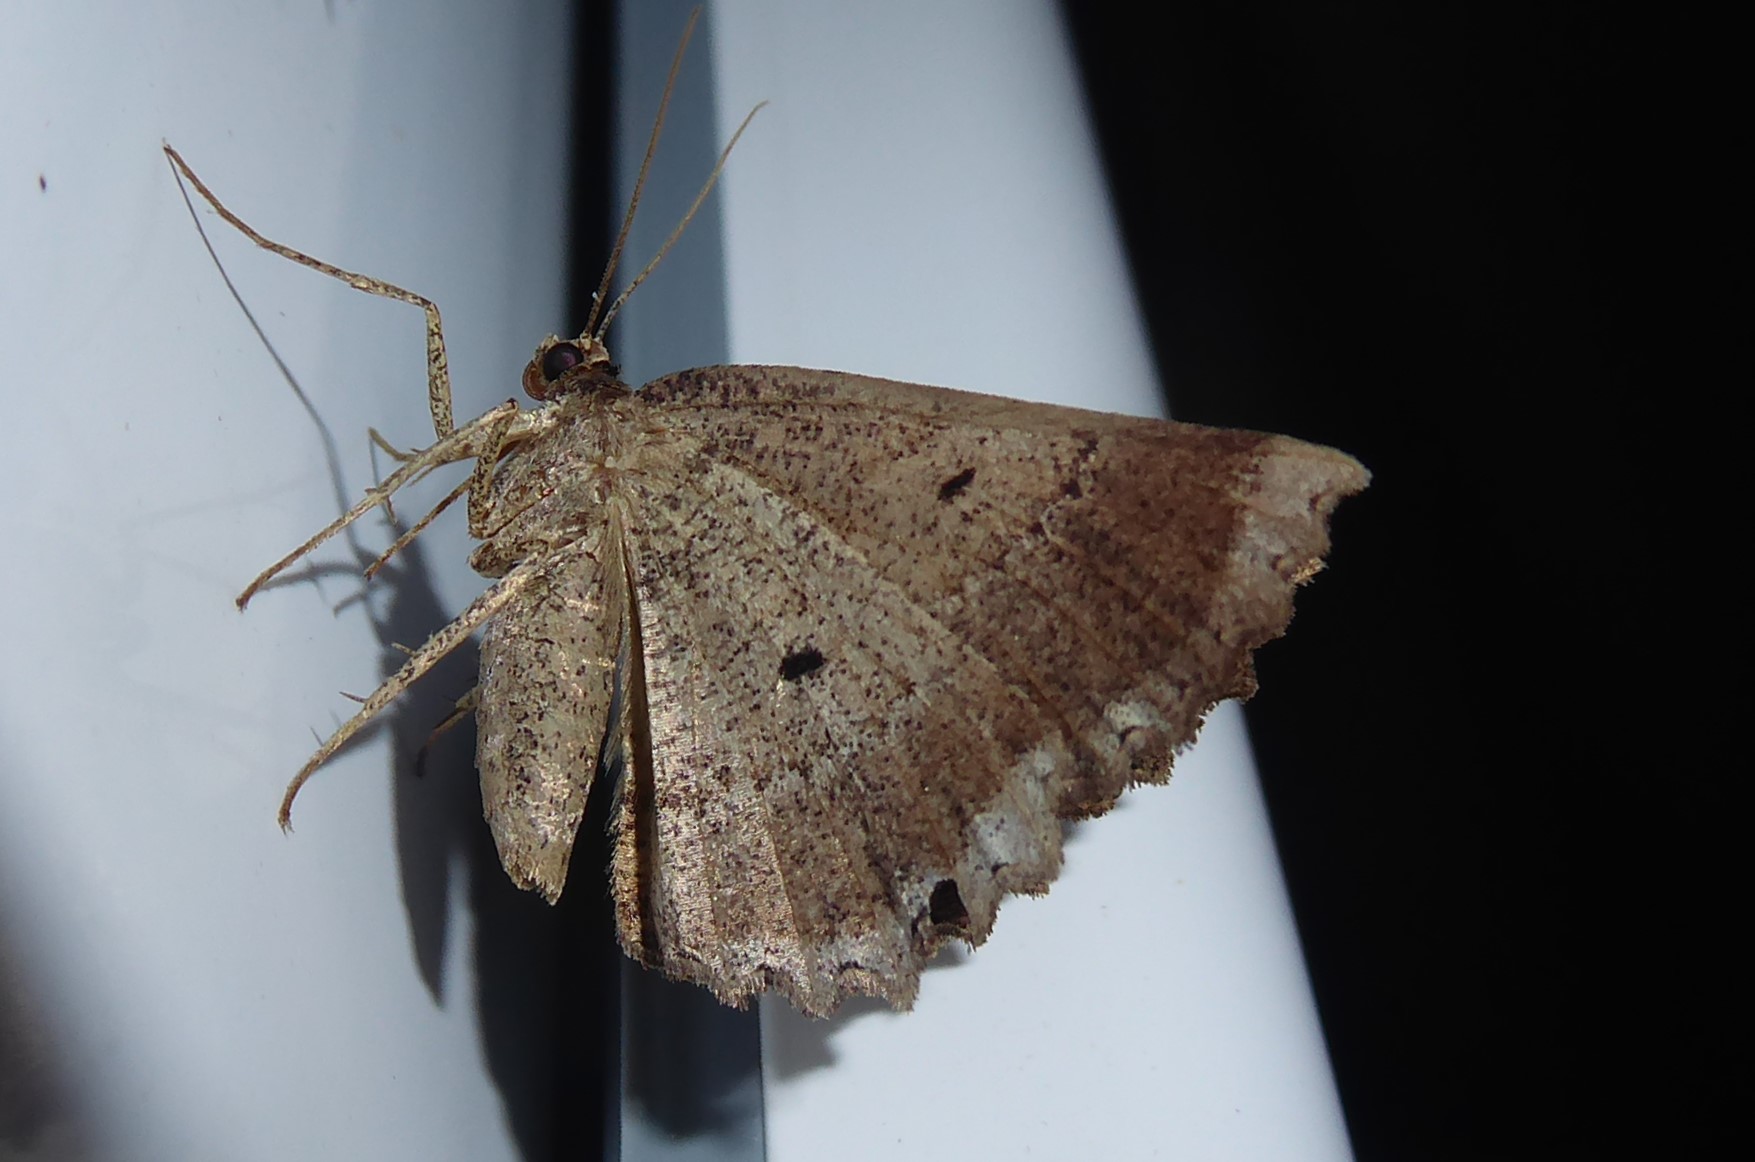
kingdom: Animalia
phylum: Arthropoda
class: Insecta
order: Lepidoptera
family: Geometridae
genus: Gellonia
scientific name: Gellonia pannularia
